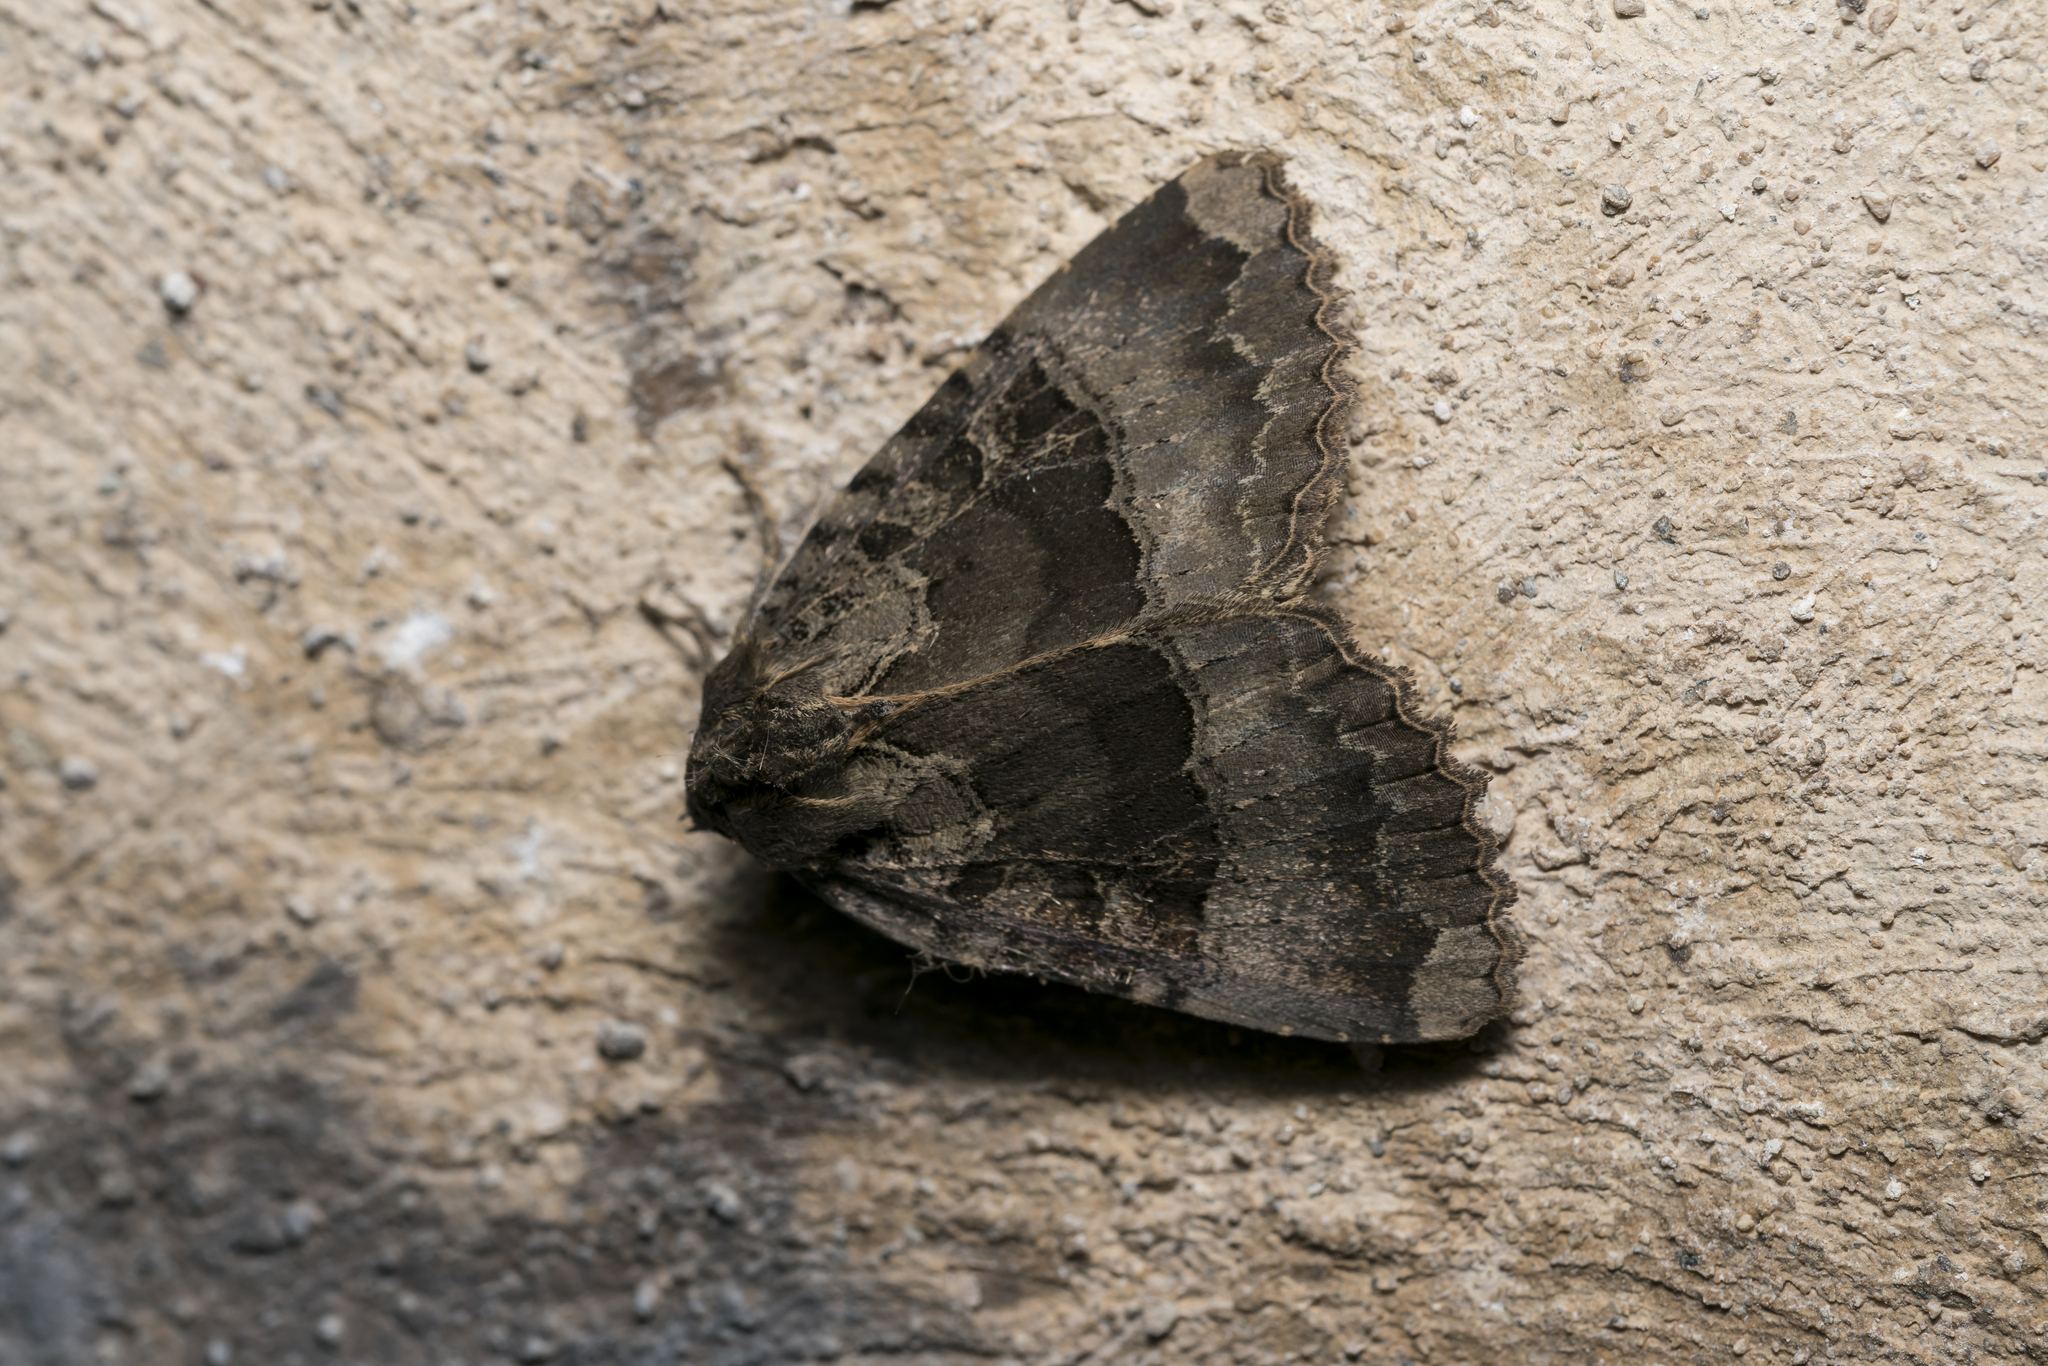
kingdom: Animalia
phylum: Arthropoda
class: Insecta
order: Lepidoptera
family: Noctuidae
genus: Mormo
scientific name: Mormo maura
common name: Old lady
